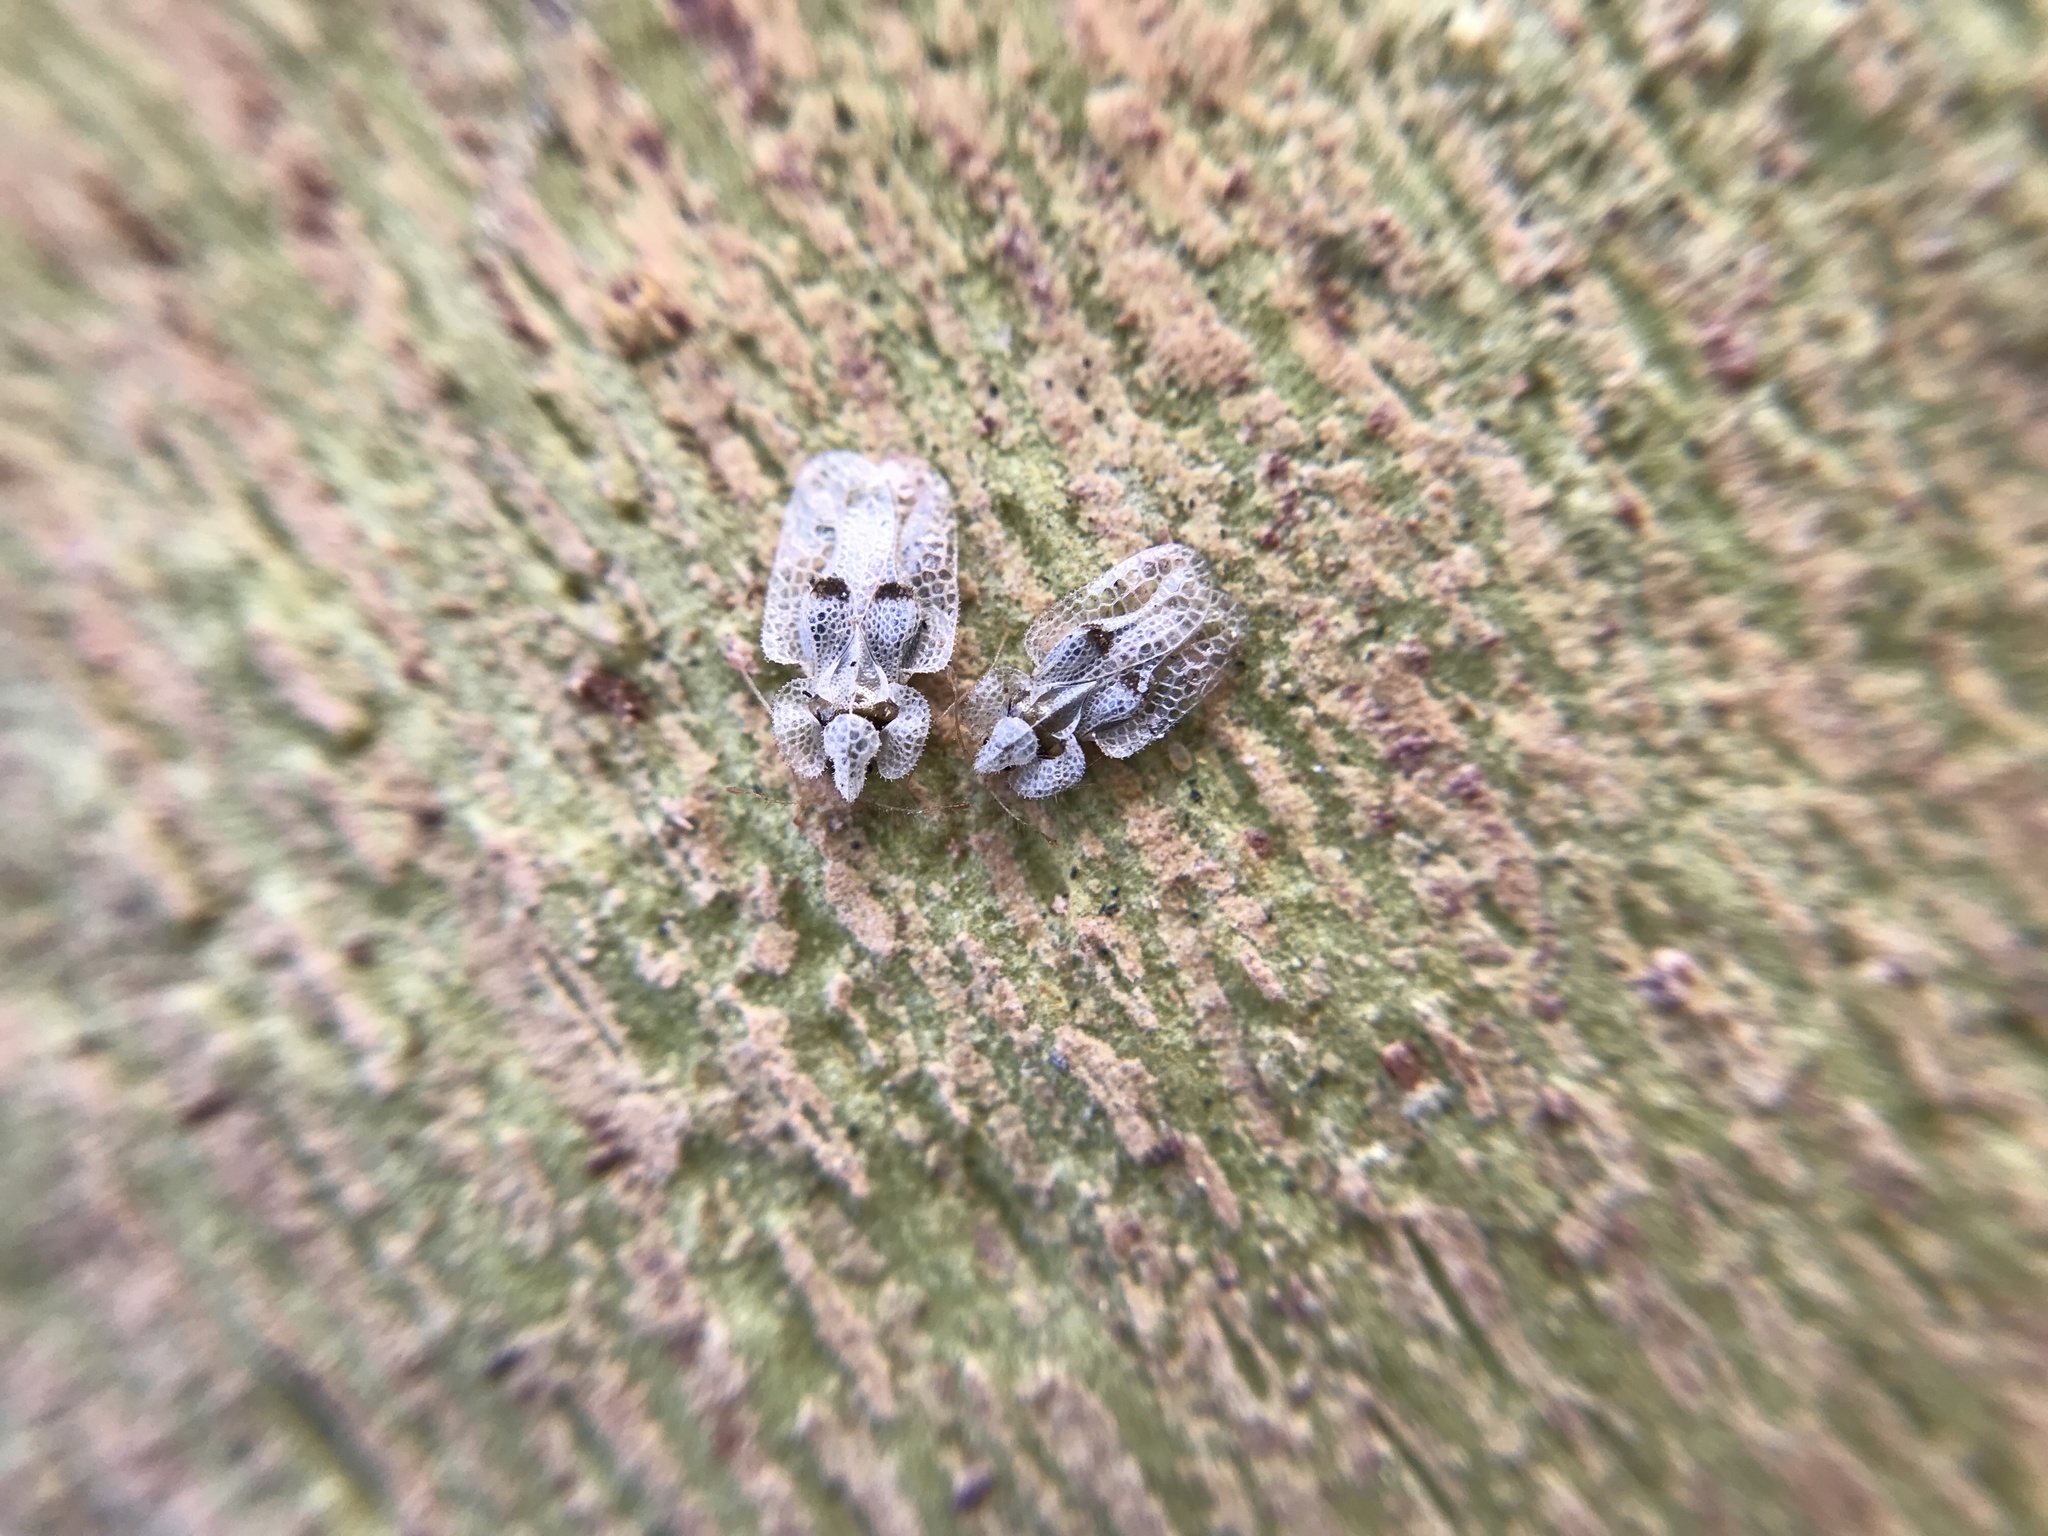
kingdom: Animalia
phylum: Arthropoda
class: Insecta
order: Hemiptera
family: Tingidae
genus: Corythucha
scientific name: Corythucha ciliata
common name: Sycamore lace bug
